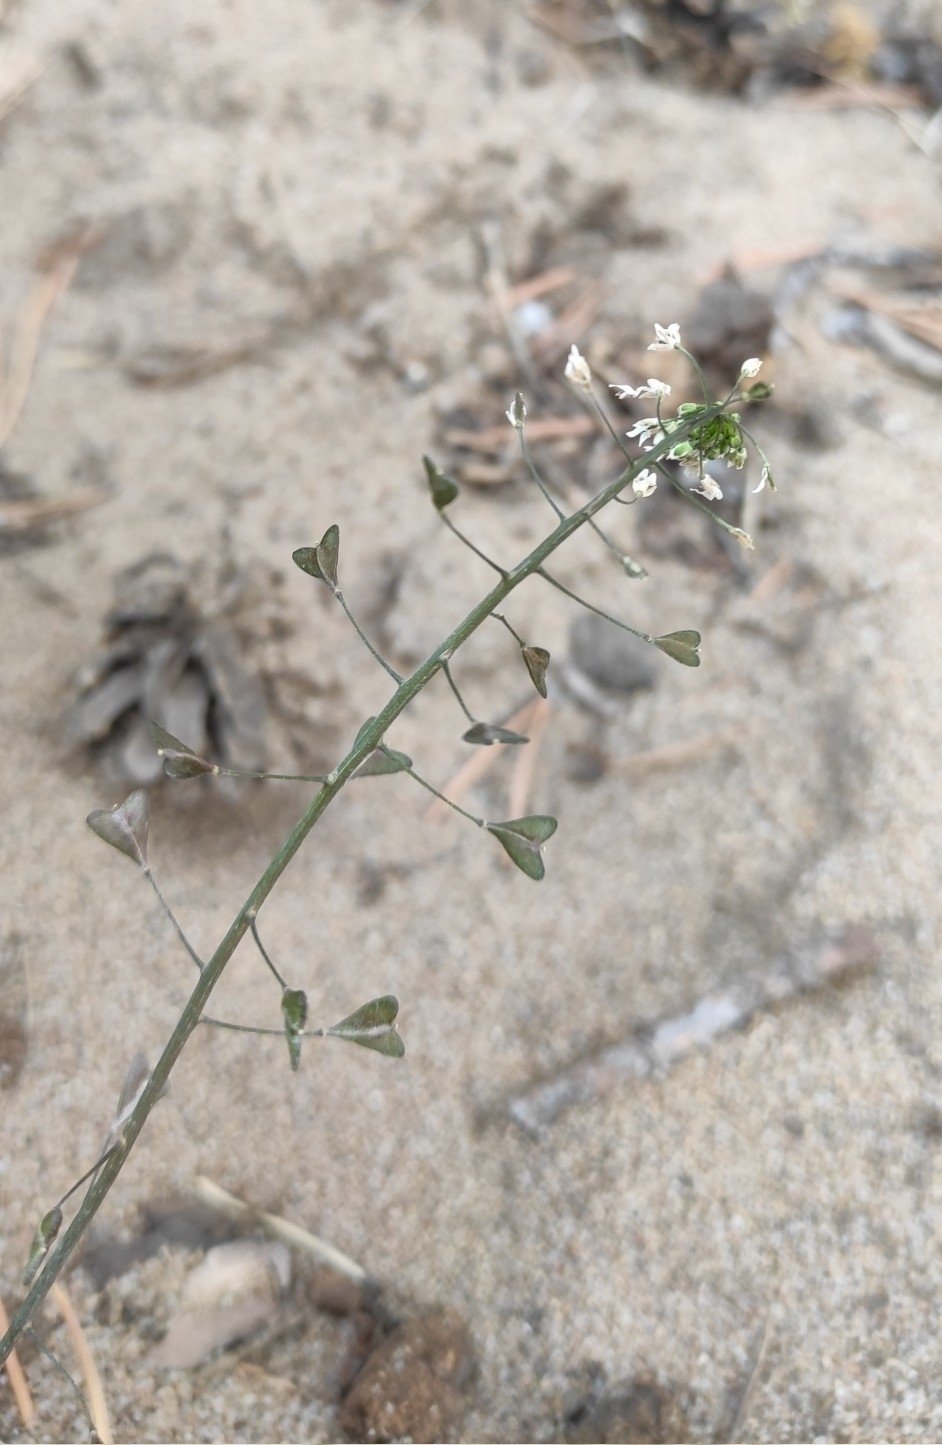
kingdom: Plantae
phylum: Tracheophyta
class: Magnoliopsida
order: Brassicales
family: Brassicaceae
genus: Capsella
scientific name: Capsella bursa-pastoris
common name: Shepherd's purse
